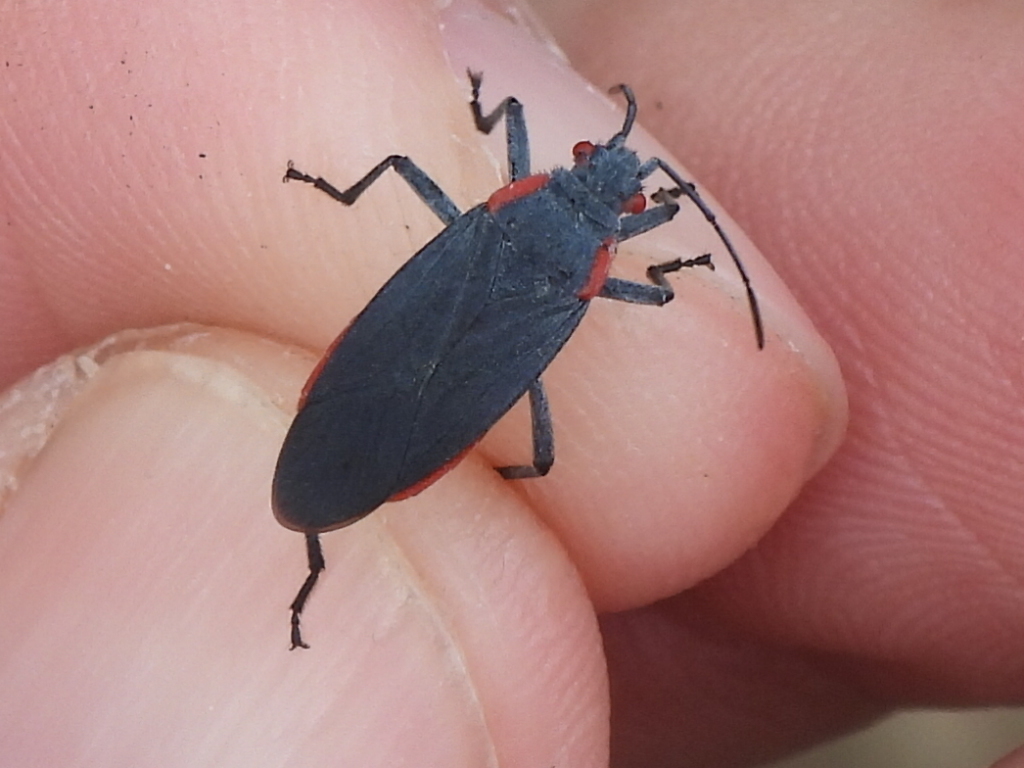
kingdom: Animalia
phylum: Arthropoda
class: Insecta
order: Hemiptera
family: Rhopalidae
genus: Jadera
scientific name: Jadera haematoloma
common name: Red-shouldered bug
